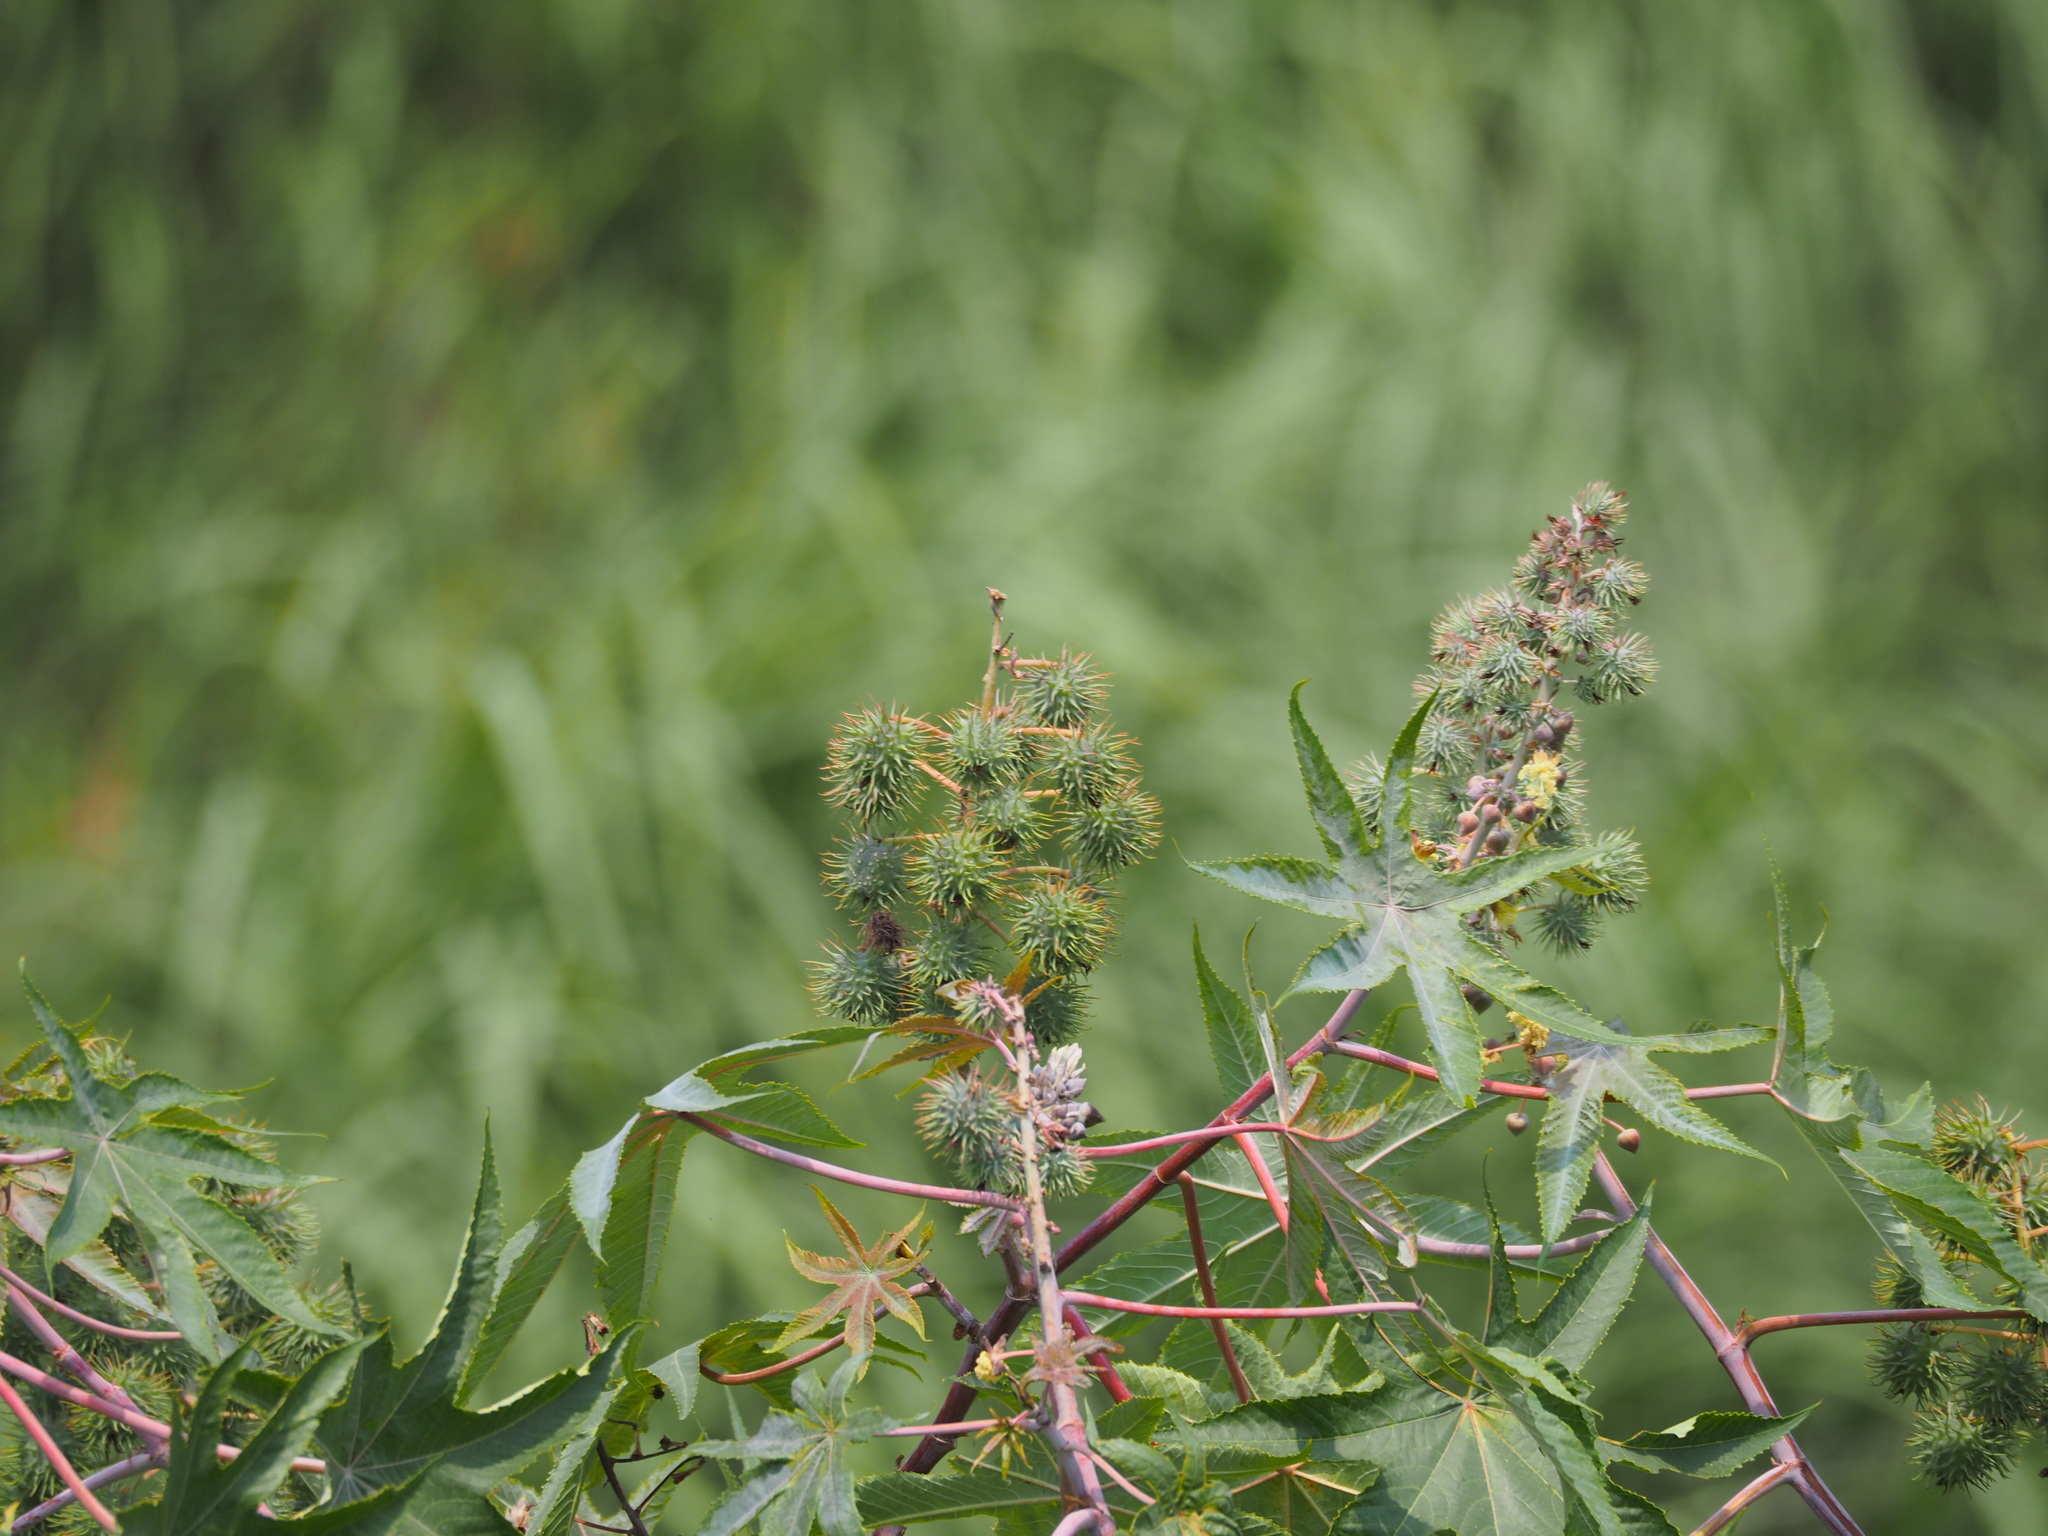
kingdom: Plantae
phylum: Tracheophyta
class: Magnoliopsida
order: Malpighiales
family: Euphorbiaceae
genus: Ricinus
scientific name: Ricinus communis
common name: Castor-oil-plant
